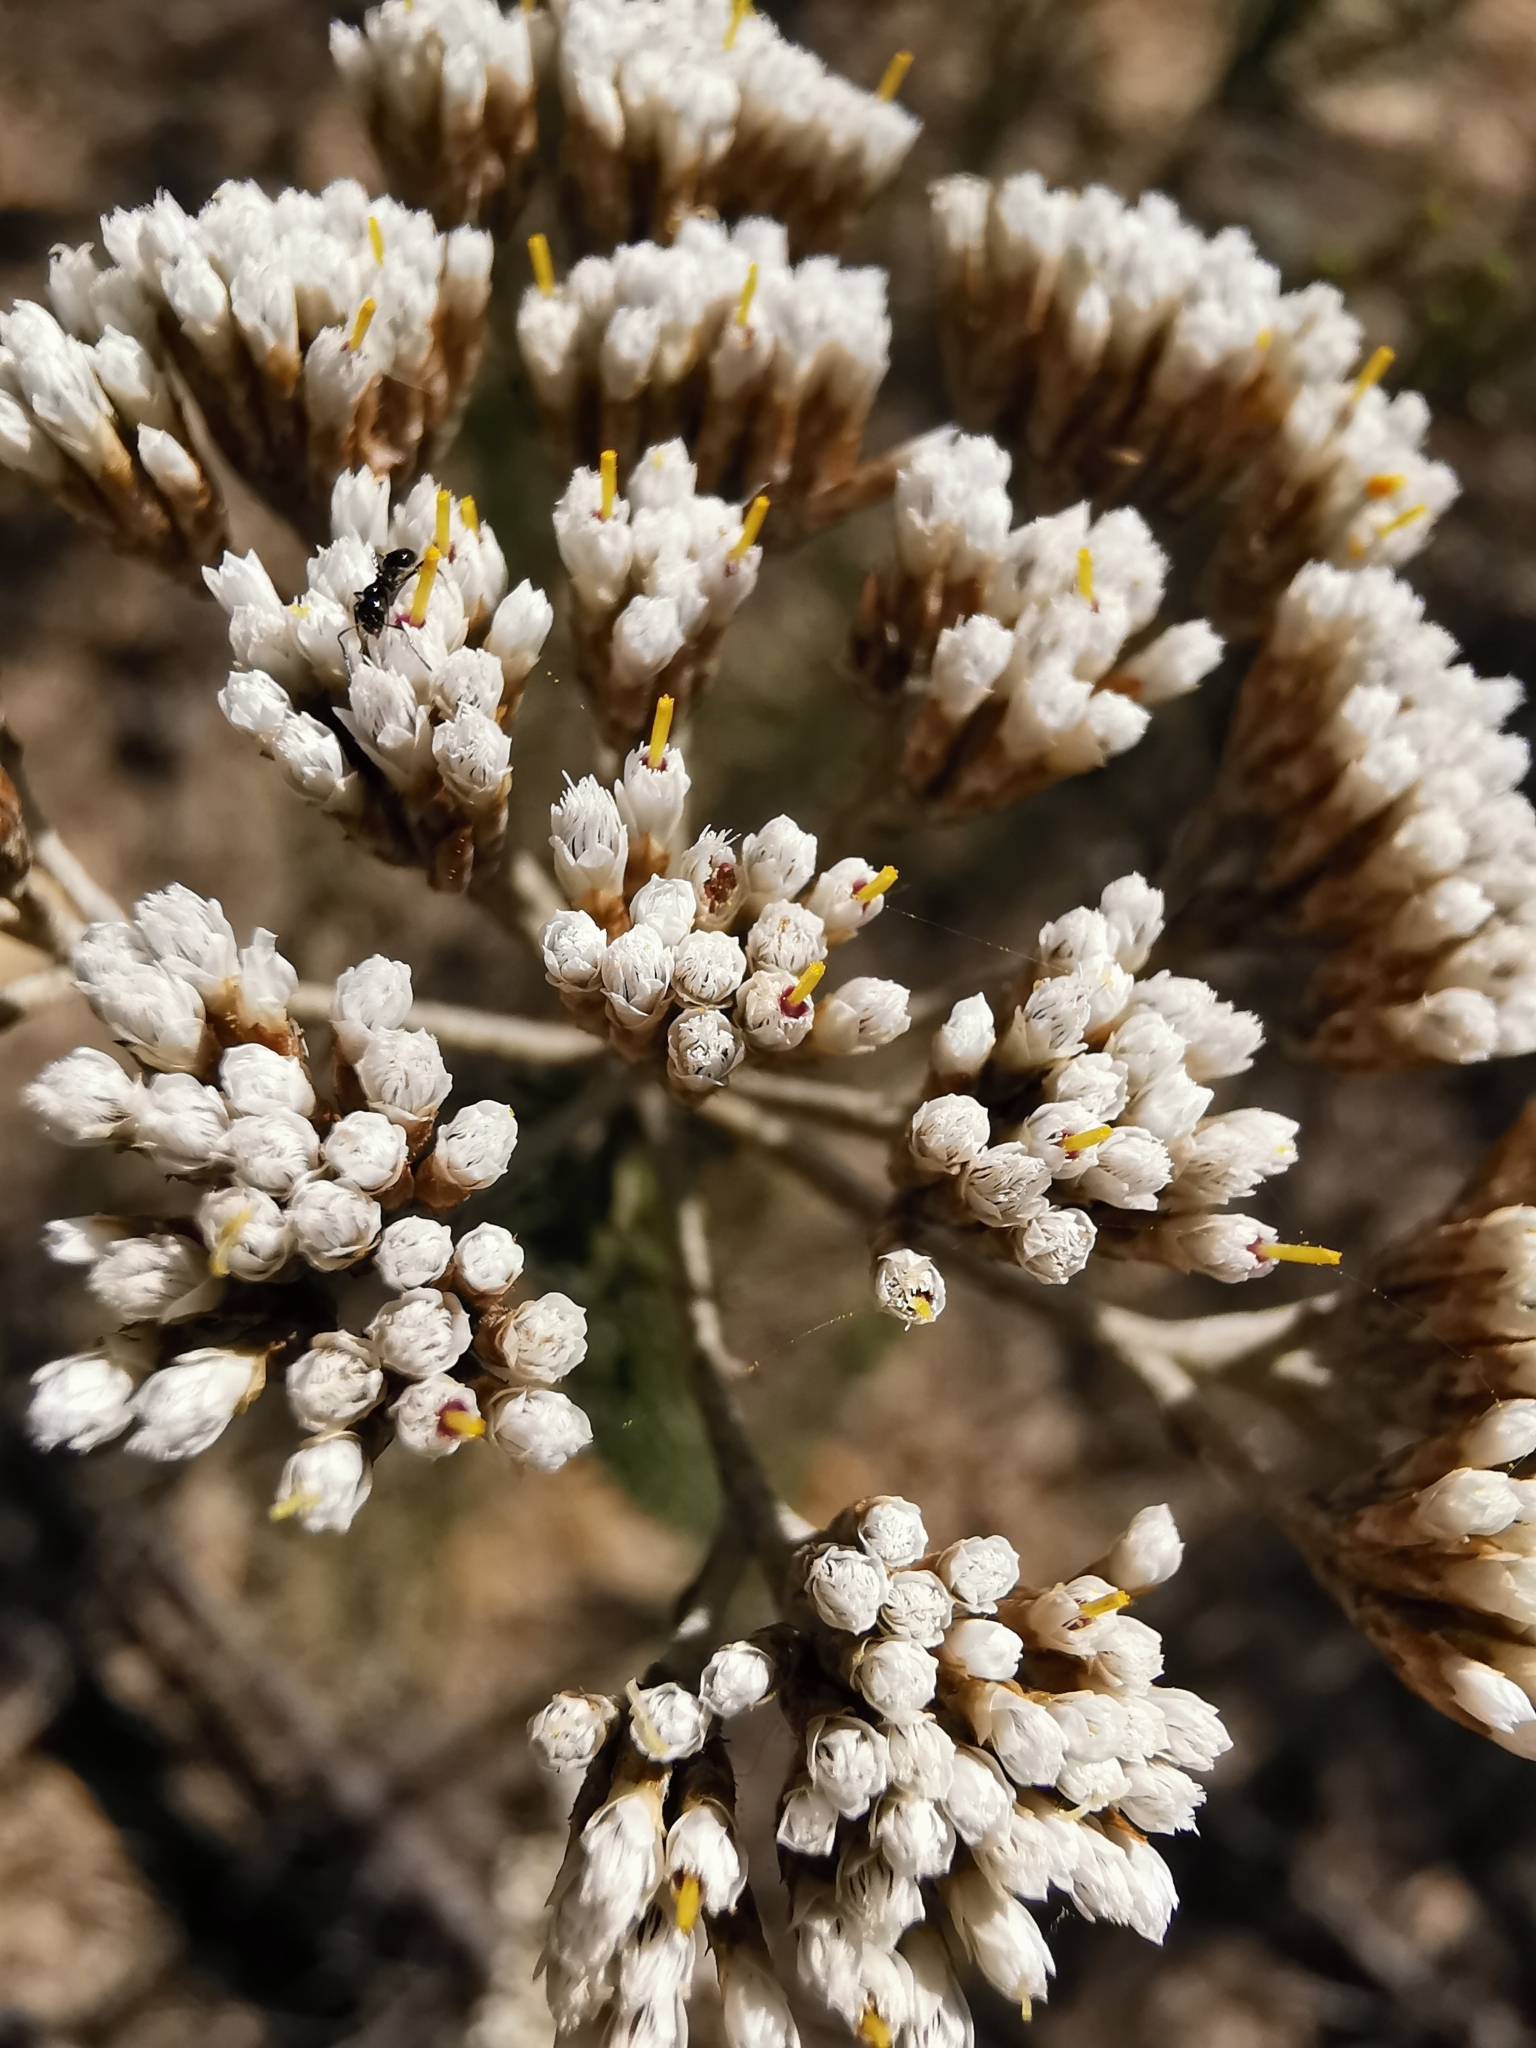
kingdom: Plantae
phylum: Tracheophyta
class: Magnoliopsida
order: Asterales
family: Asteraceae
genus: Metalasia
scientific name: Metalasia muricata
